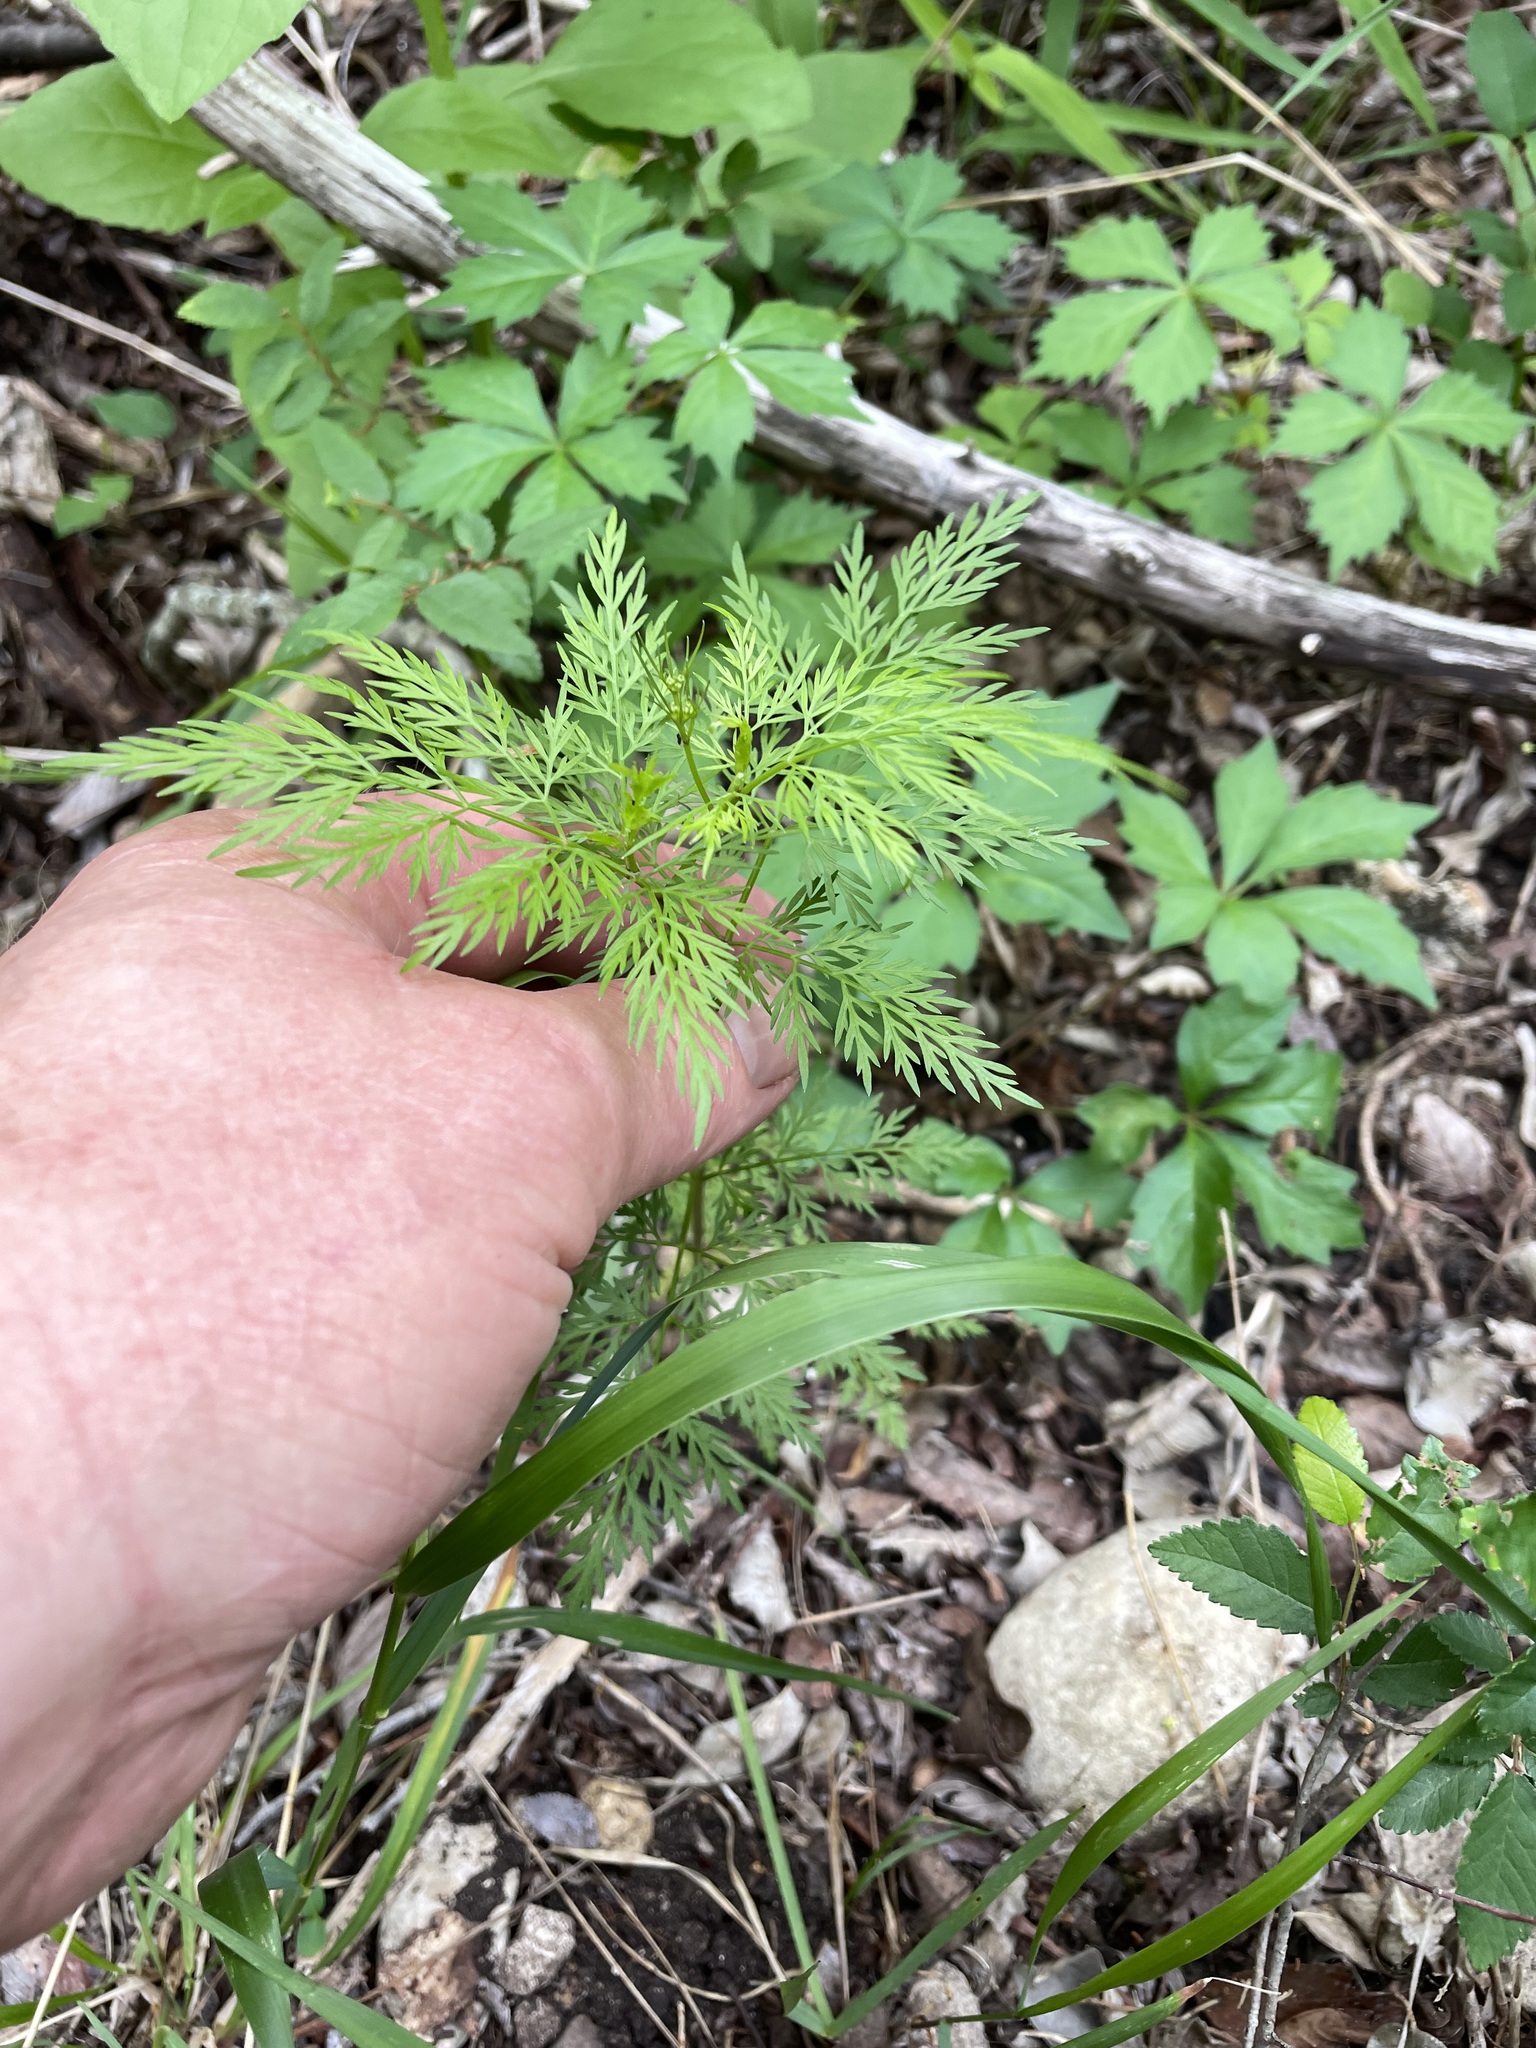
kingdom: Plantae
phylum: Tracheophyta
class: Magnoliopsida
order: Apiales
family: Apiaceae
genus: Trepocarpus
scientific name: Trepocarpus aethusae
